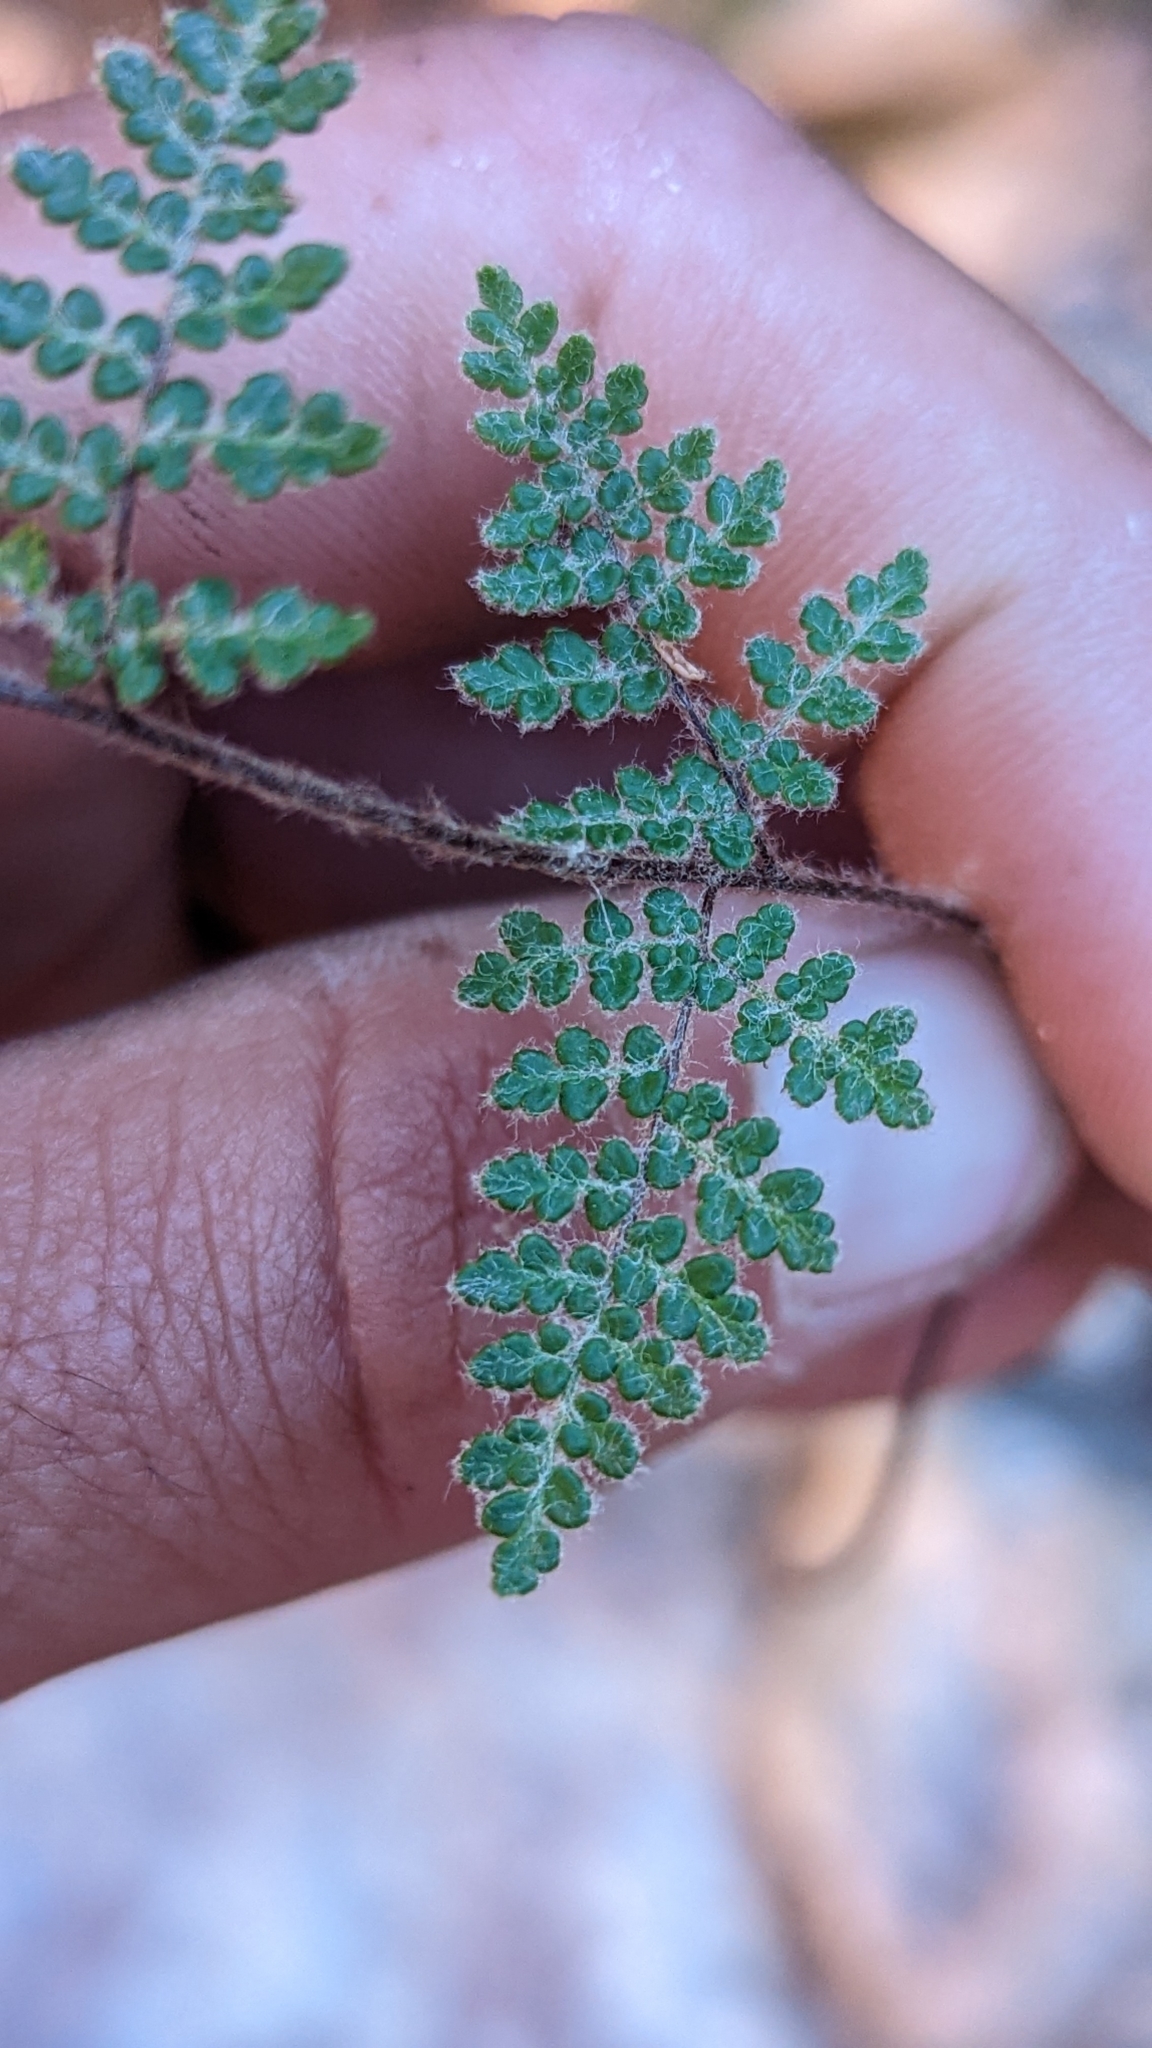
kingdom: Plantae
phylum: Tracheophyta
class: Polypodiopsida
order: Polypodiales
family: Pteridaceae
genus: Myriopteris
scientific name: Myriopteris gracilis
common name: Fee's lip fern
